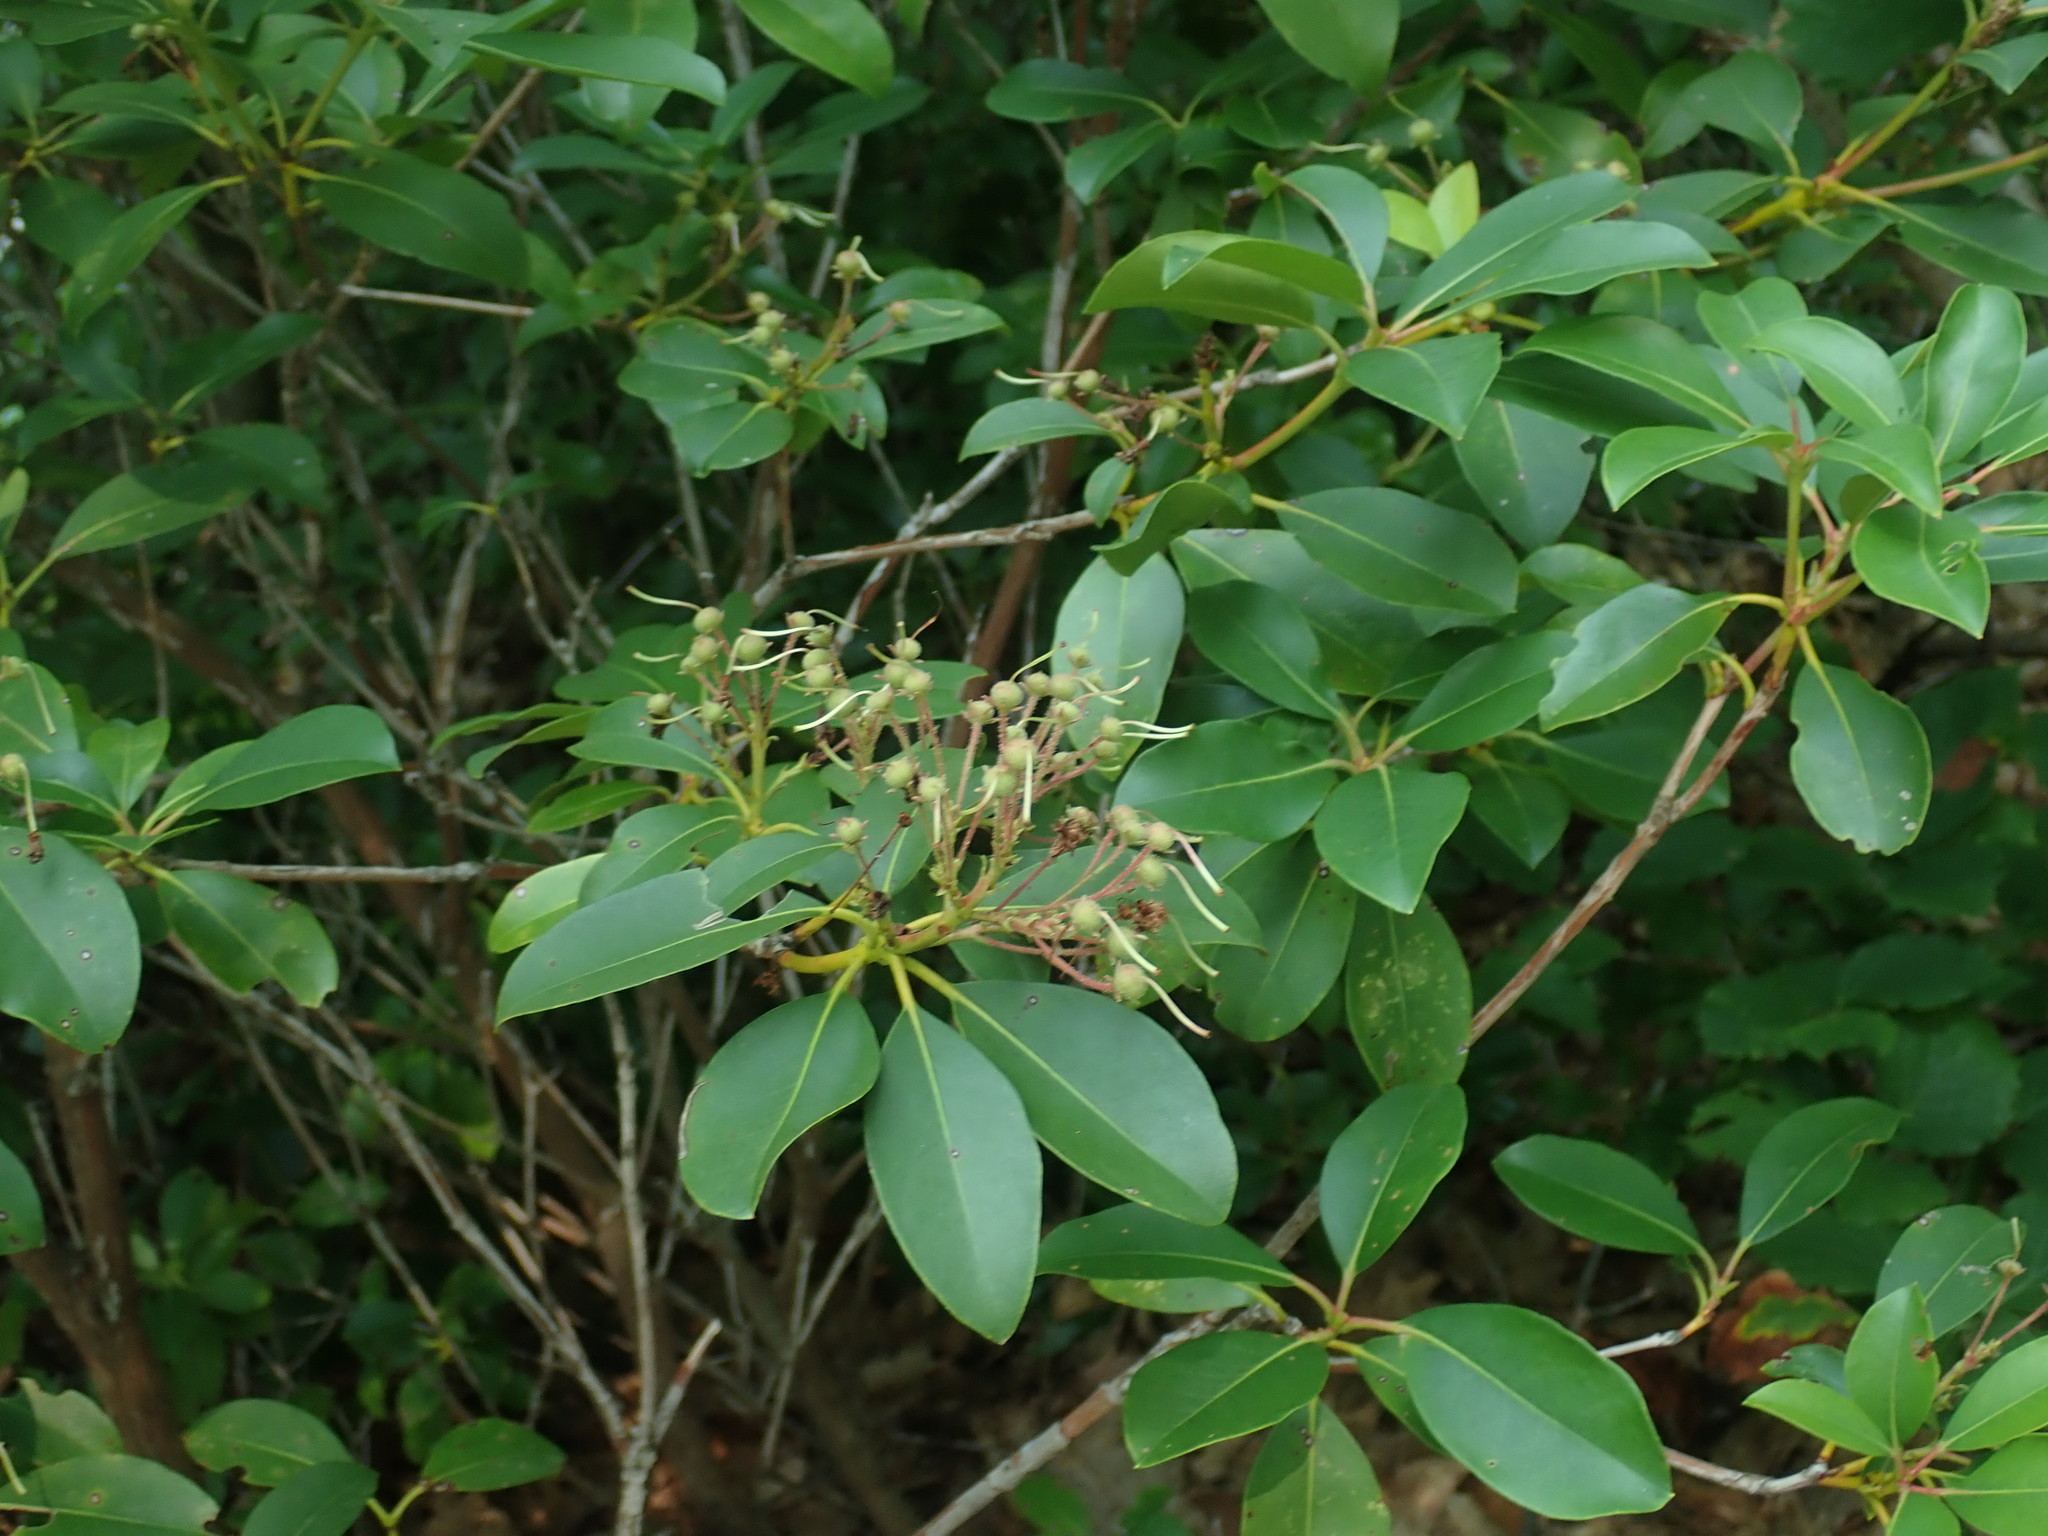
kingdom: Plantae
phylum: Tracheophyta
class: Magnoliopsida
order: Ericales
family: Ericaceae
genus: Kalmia
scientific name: Kalmia latifolia
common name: Mountain-laurel
